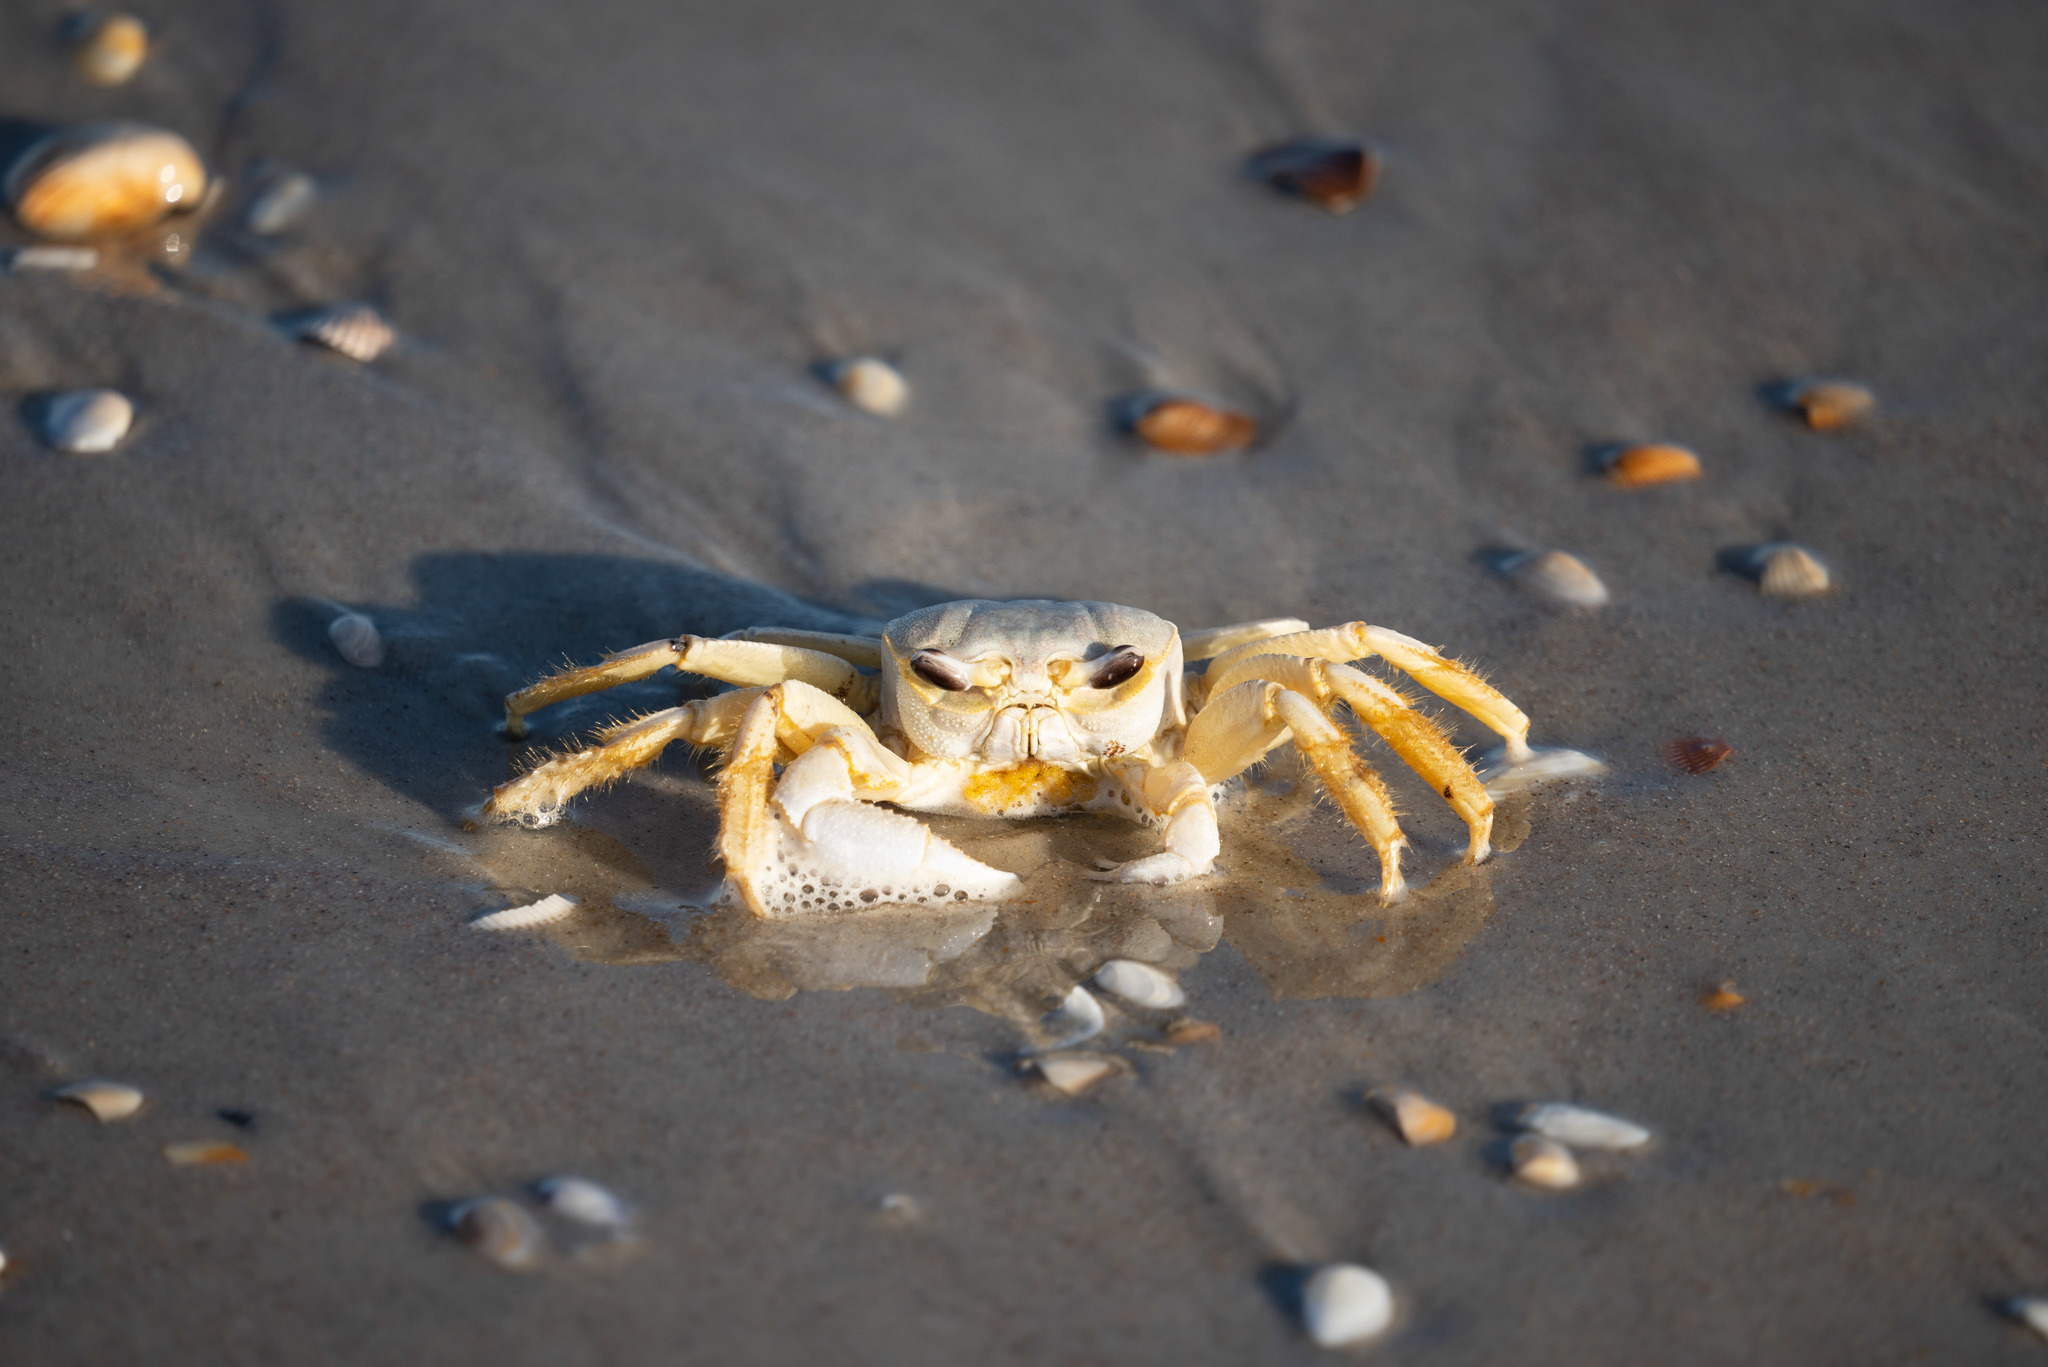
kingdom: Animalia
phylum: Arthropoda
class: Malacostraca
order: Decapoda
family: Ocypodidae
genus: Ocypode
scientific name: Ocypode quadrata
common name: Ghost crab
